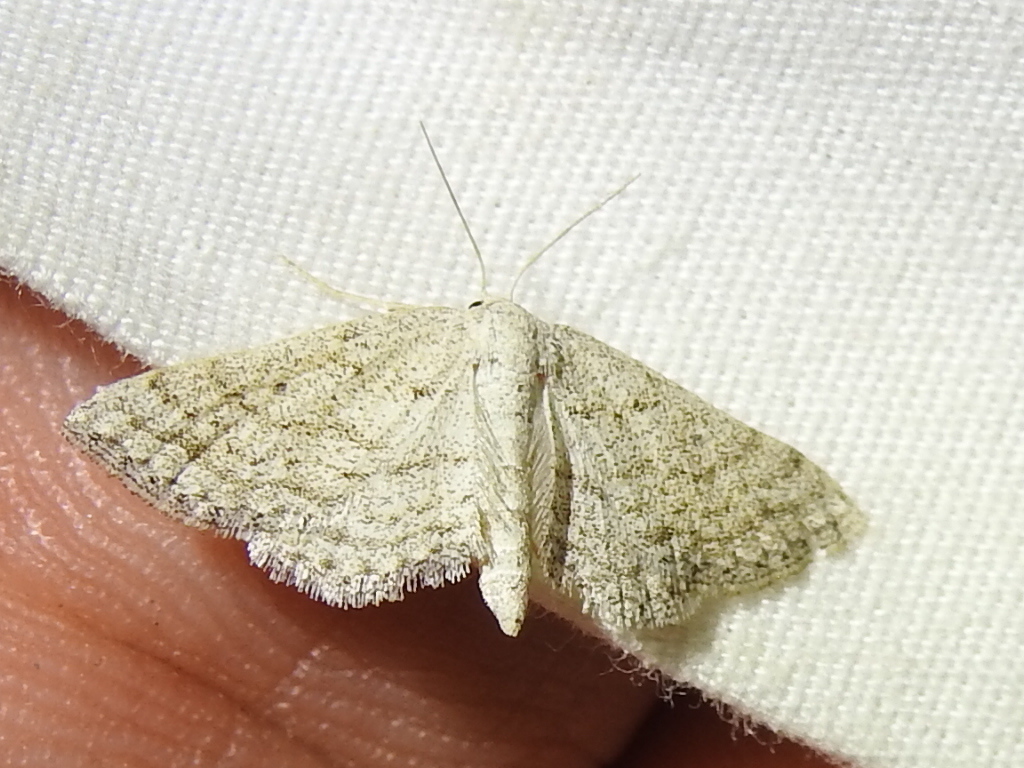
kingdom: Animalia
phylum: Arthropoda
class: Insecta
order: Lepidoptera
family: Geometridae
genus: Lobocleta
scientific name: Lobocleta ossularia
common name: Drab brown wave
